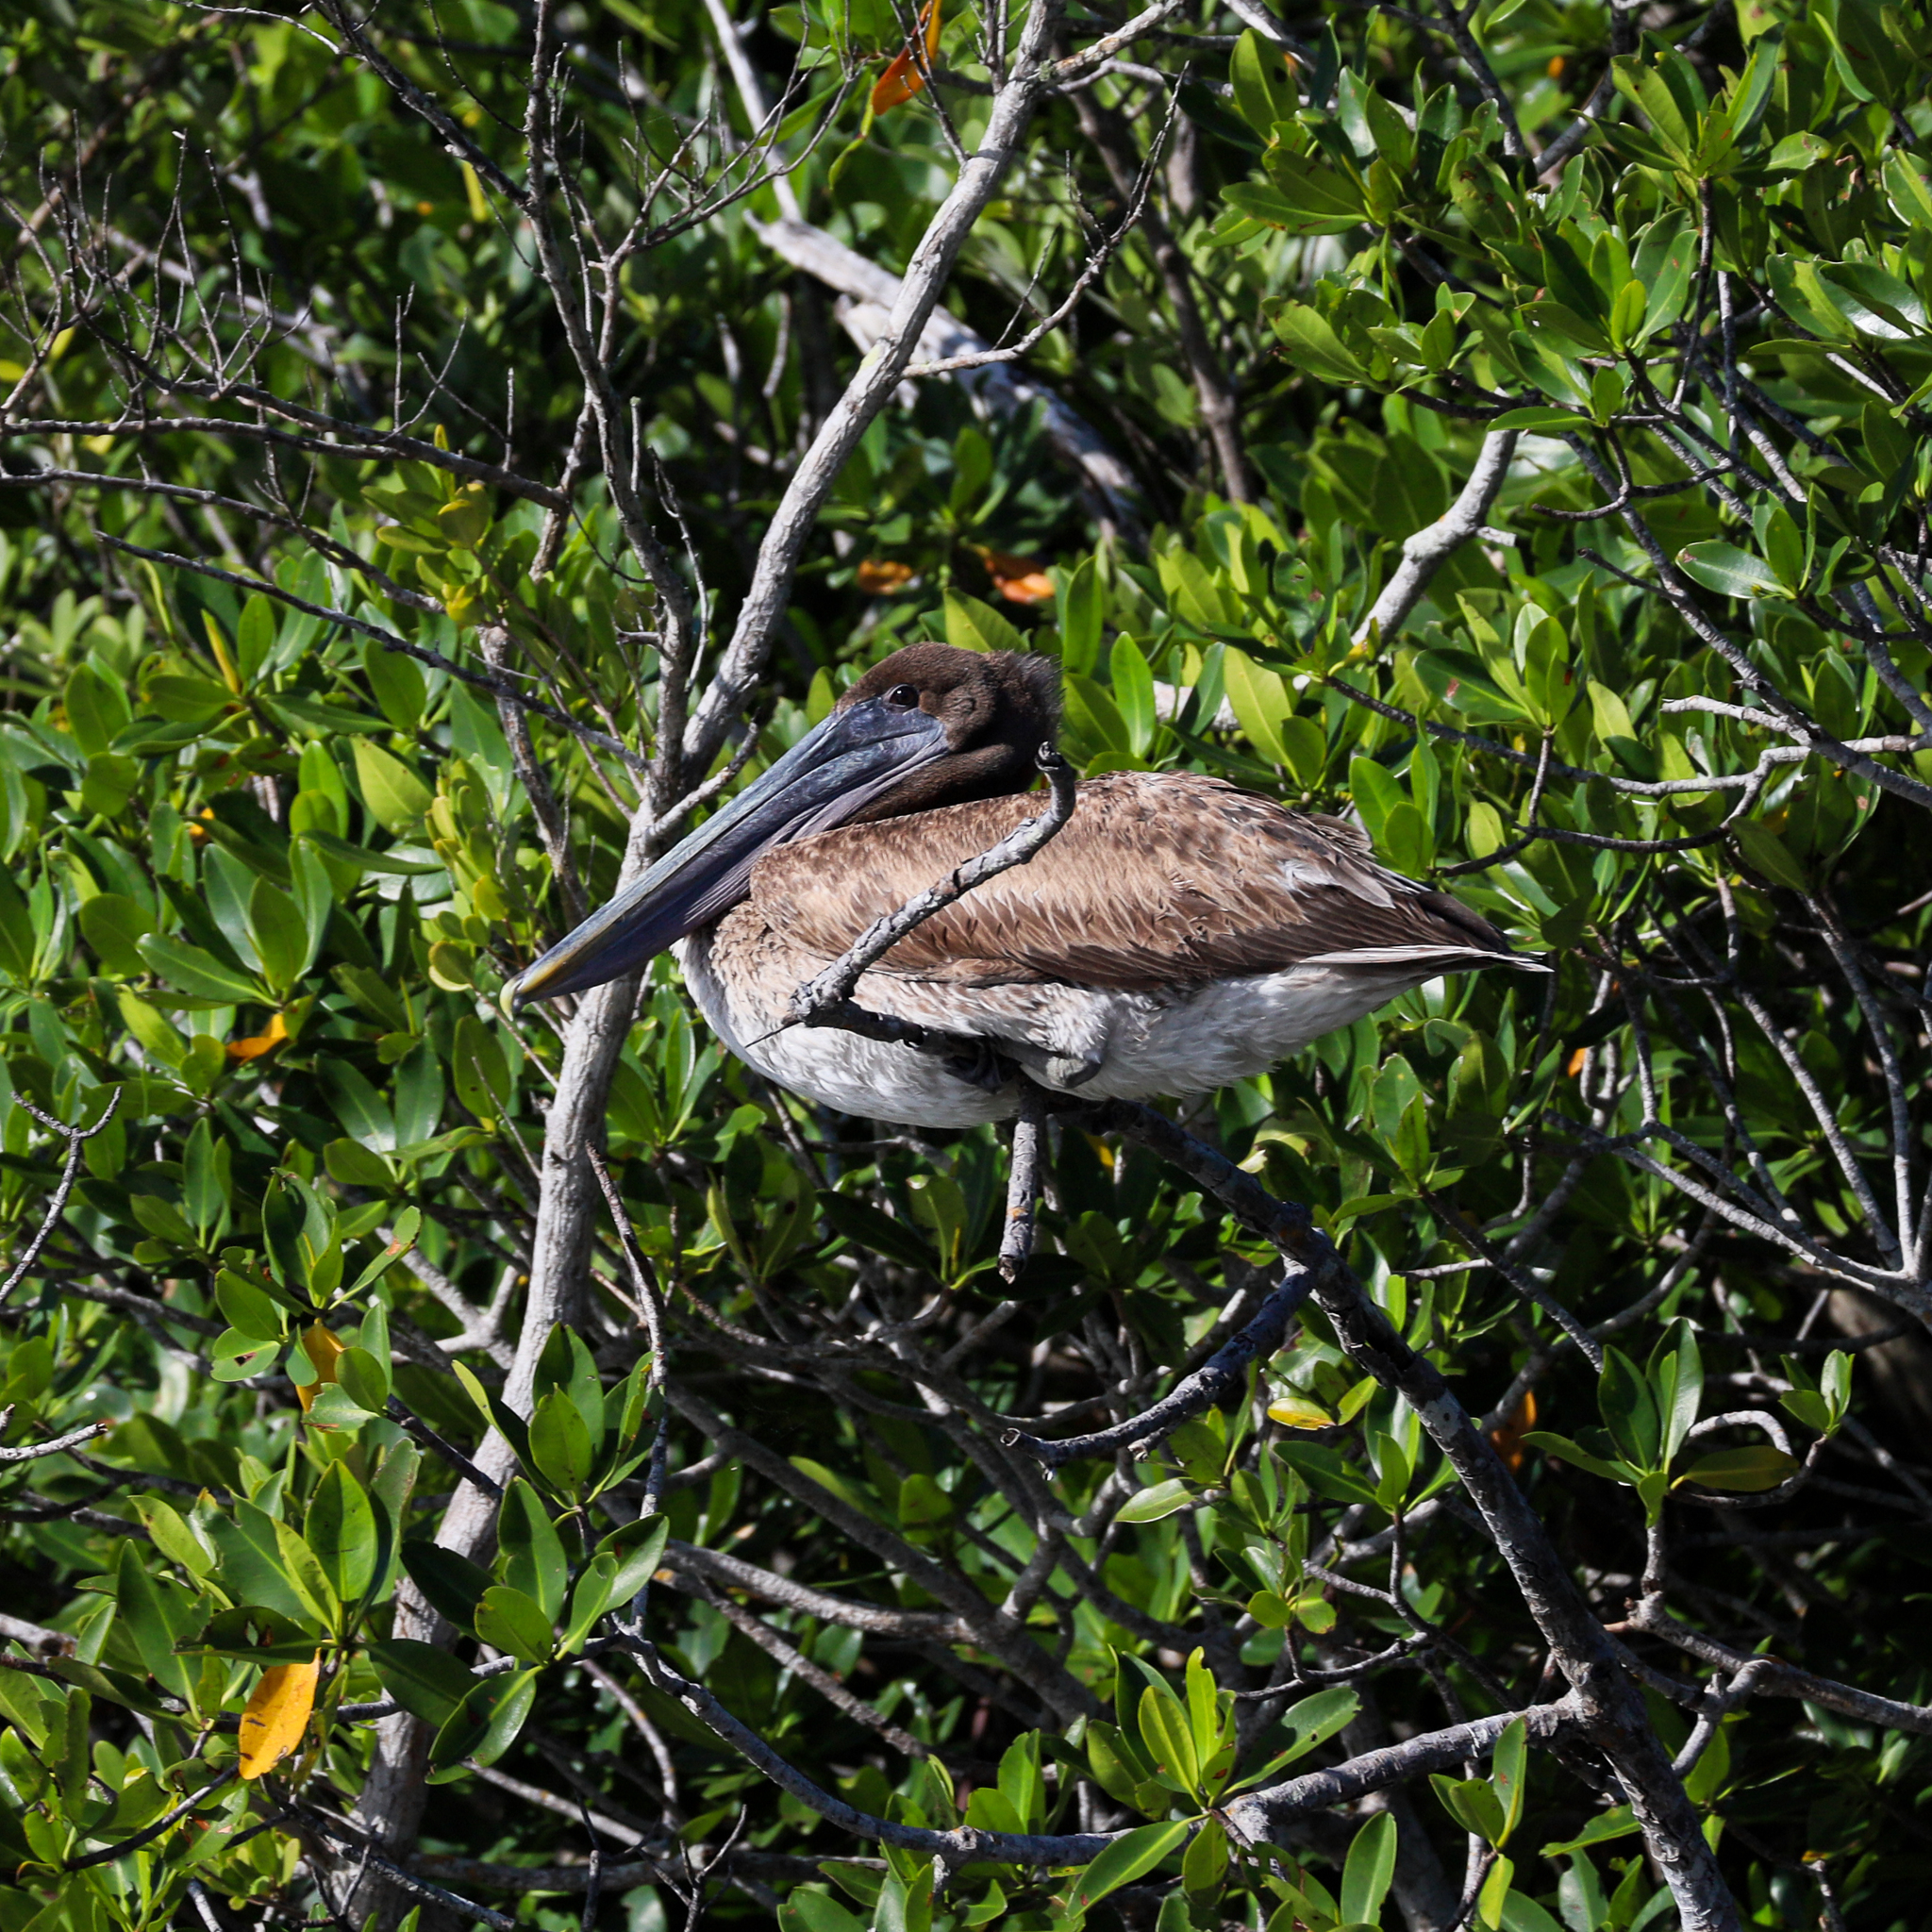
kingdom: Animalia
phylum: Chordata
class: Aves
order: Pelecaniformes
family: Pelecanidae
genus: Pelecanus
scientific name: Pelecanus occidentalis
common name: Brown pelican
